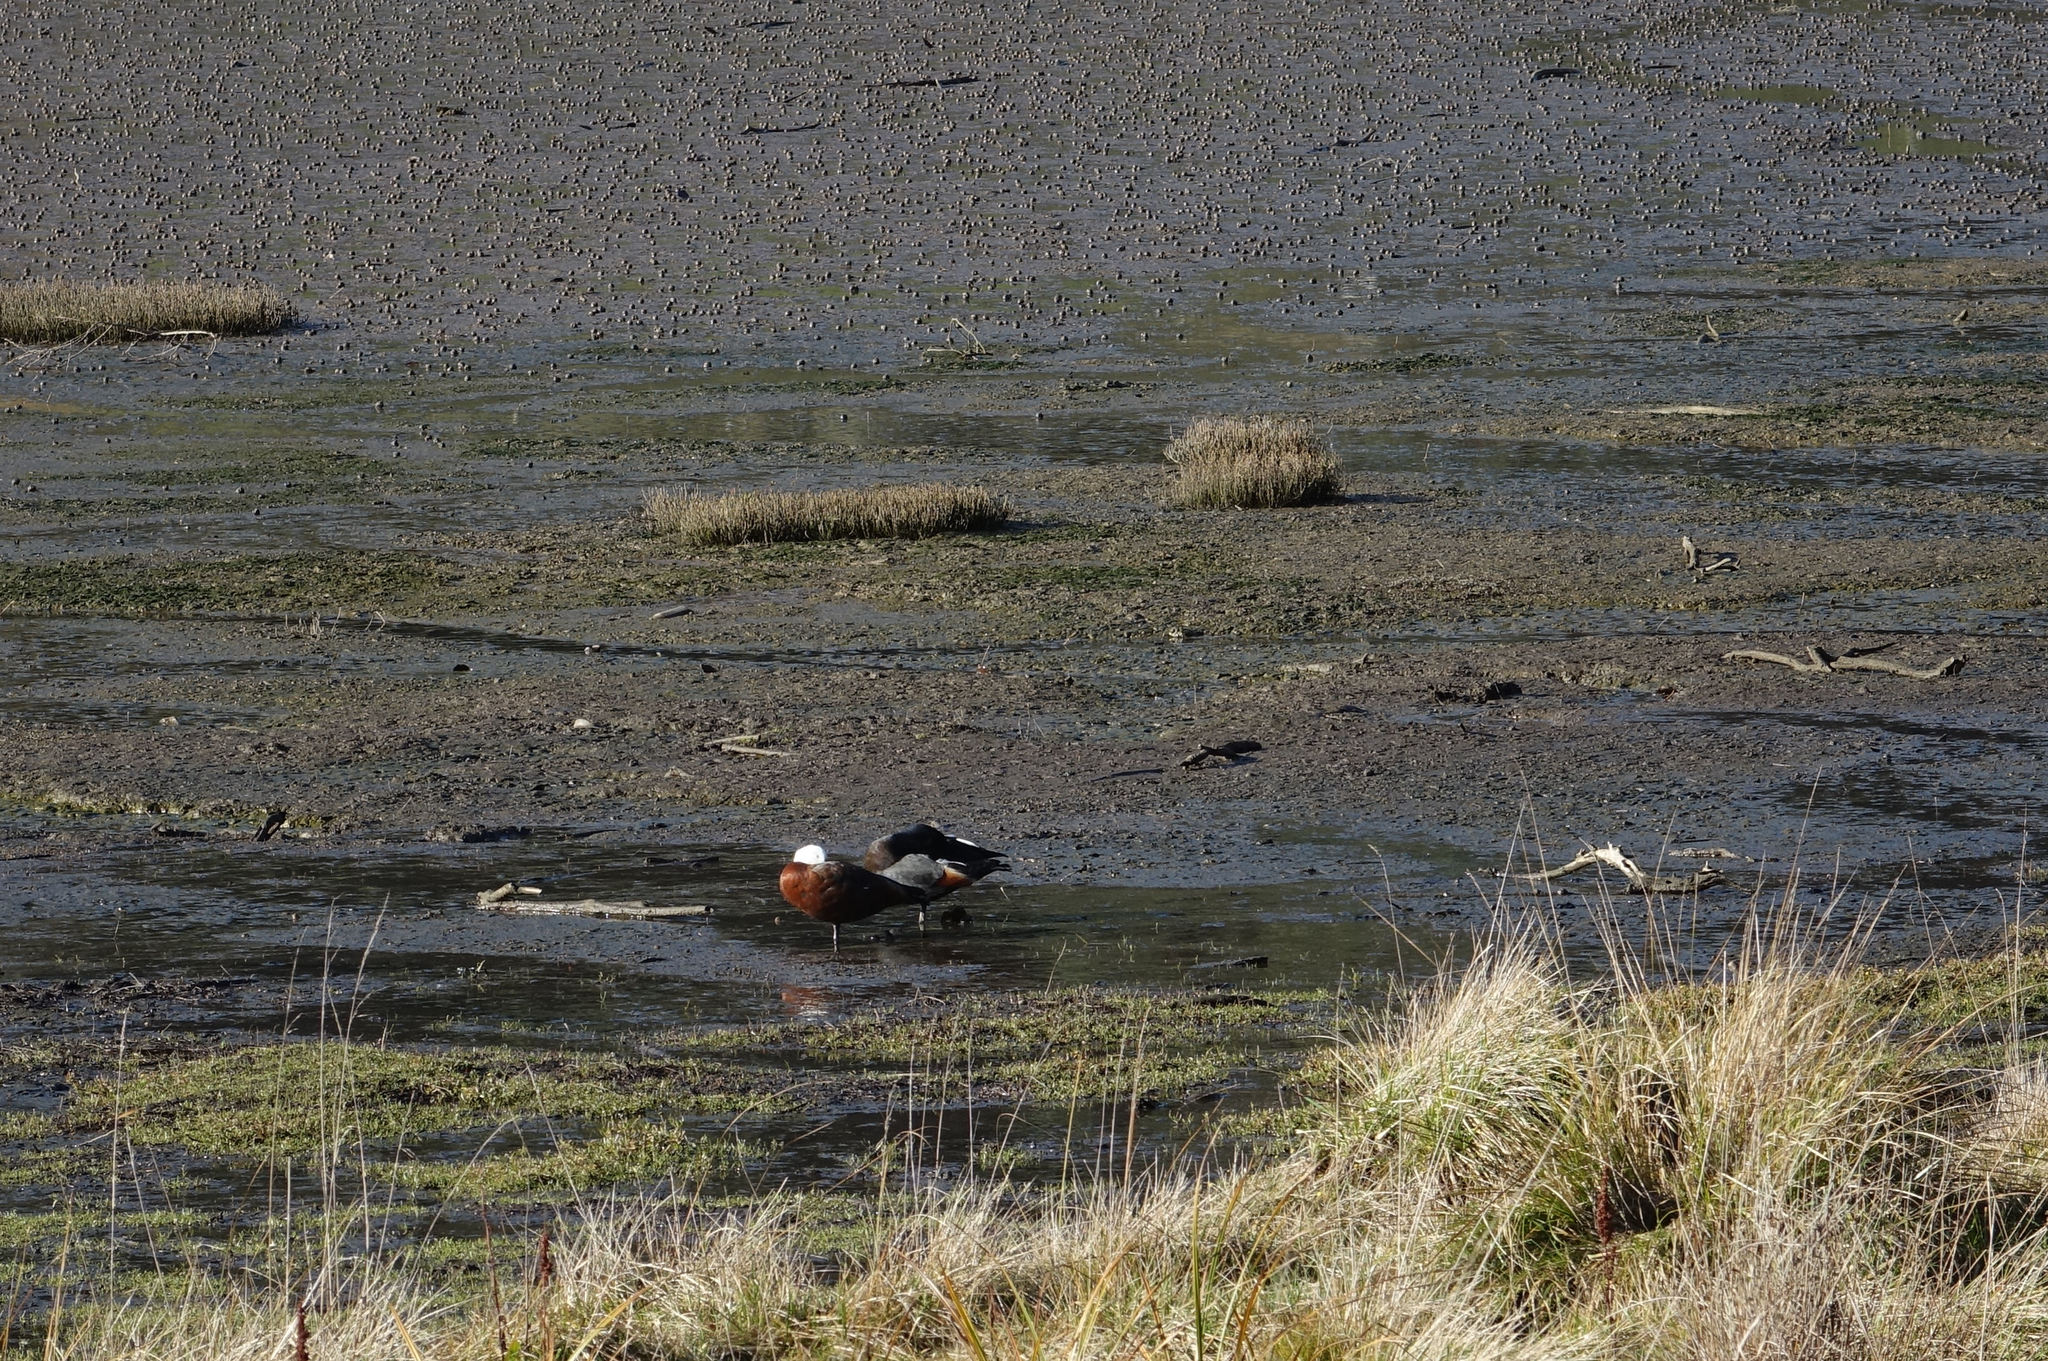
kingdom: Animalia
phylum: Chordata
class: Aves
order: Anseriformes
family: Anatidae
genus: Tadorna
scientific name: Tadorna variegata
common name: Paradise shelduck
